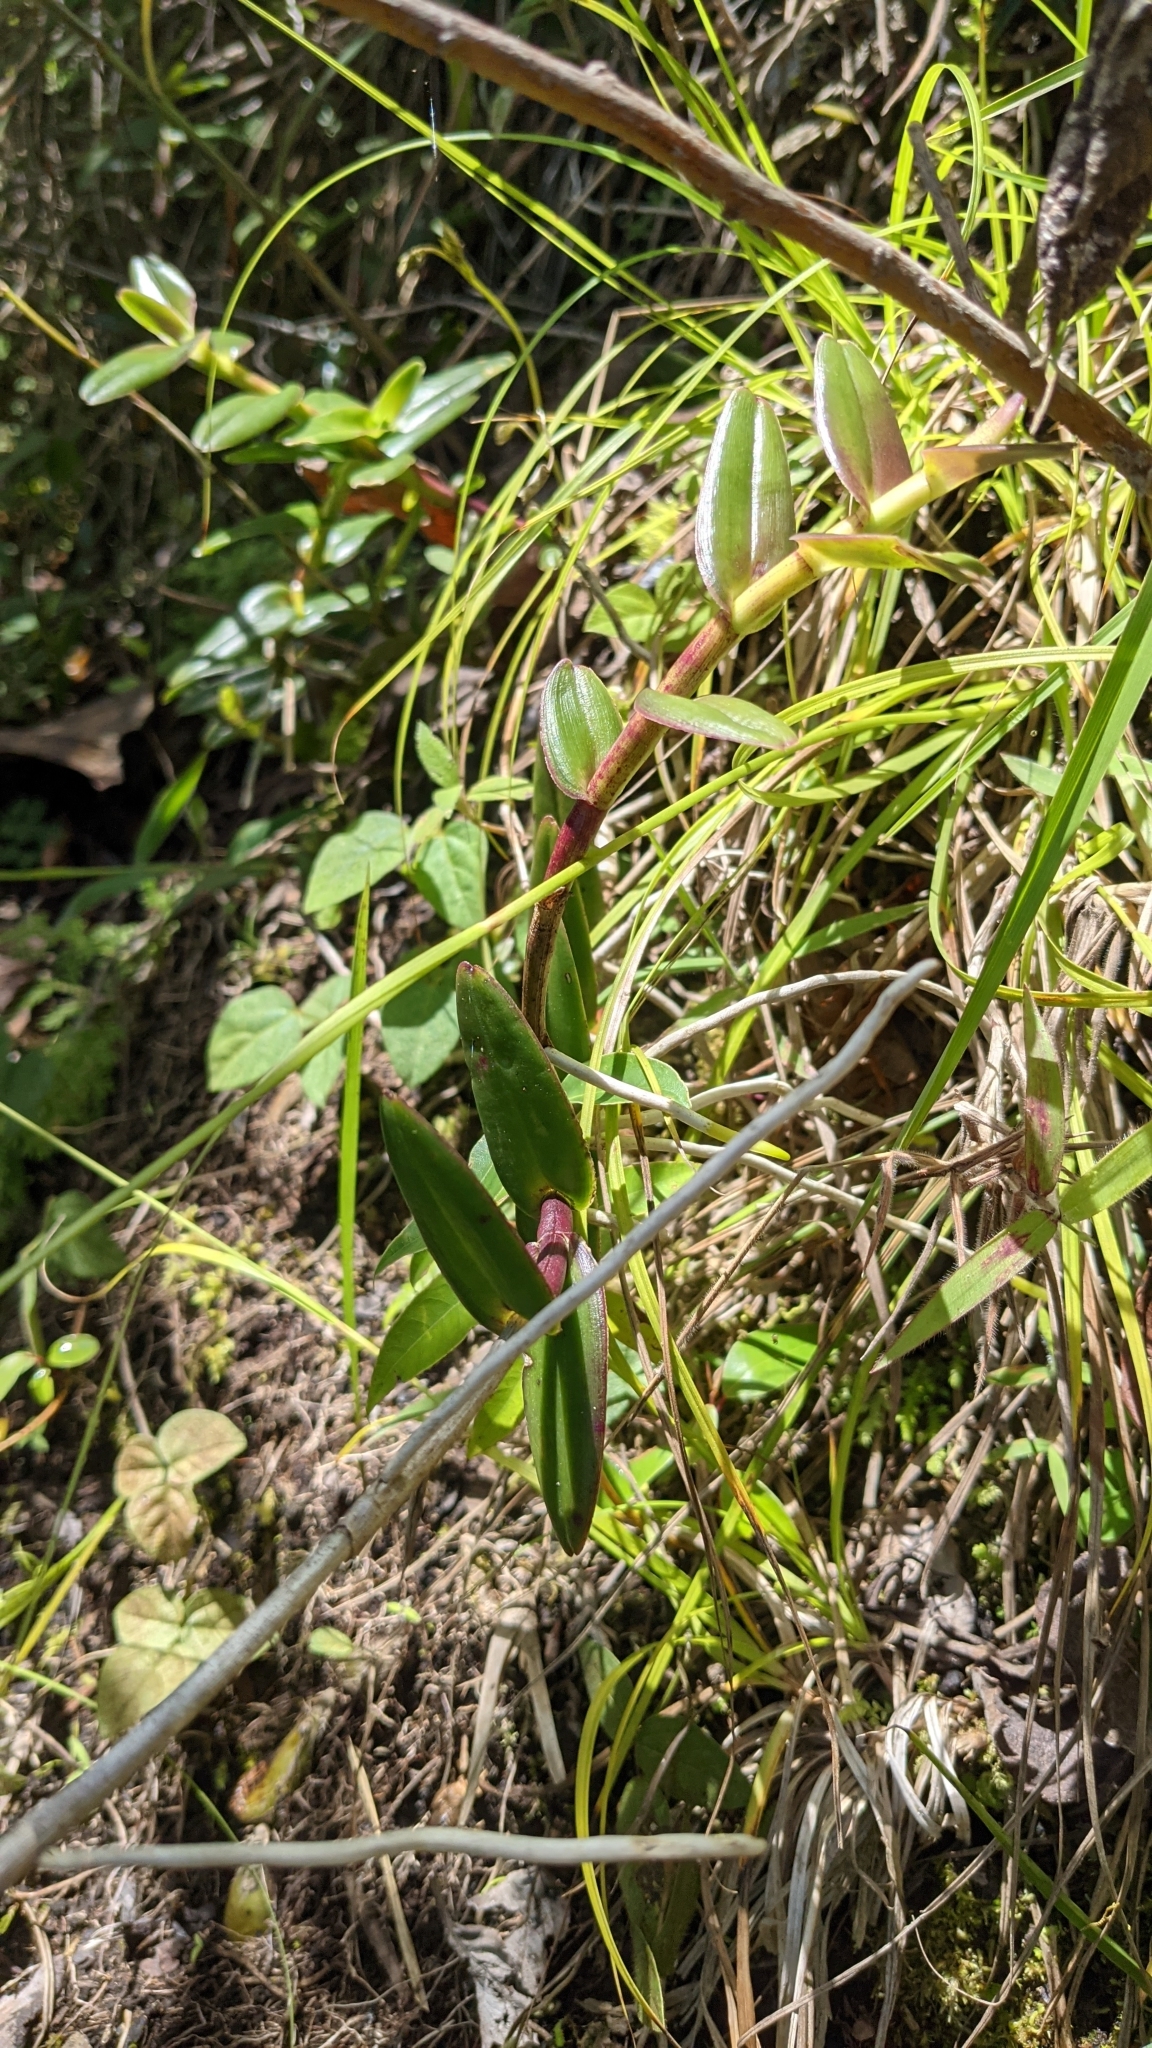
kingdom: Plantae
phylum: Tracheophyta
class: Liliopsida
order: Asparagales
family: Orchidaceae
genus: Epidendrum
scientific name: Epidendrum radicans
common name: Fire star orchid
